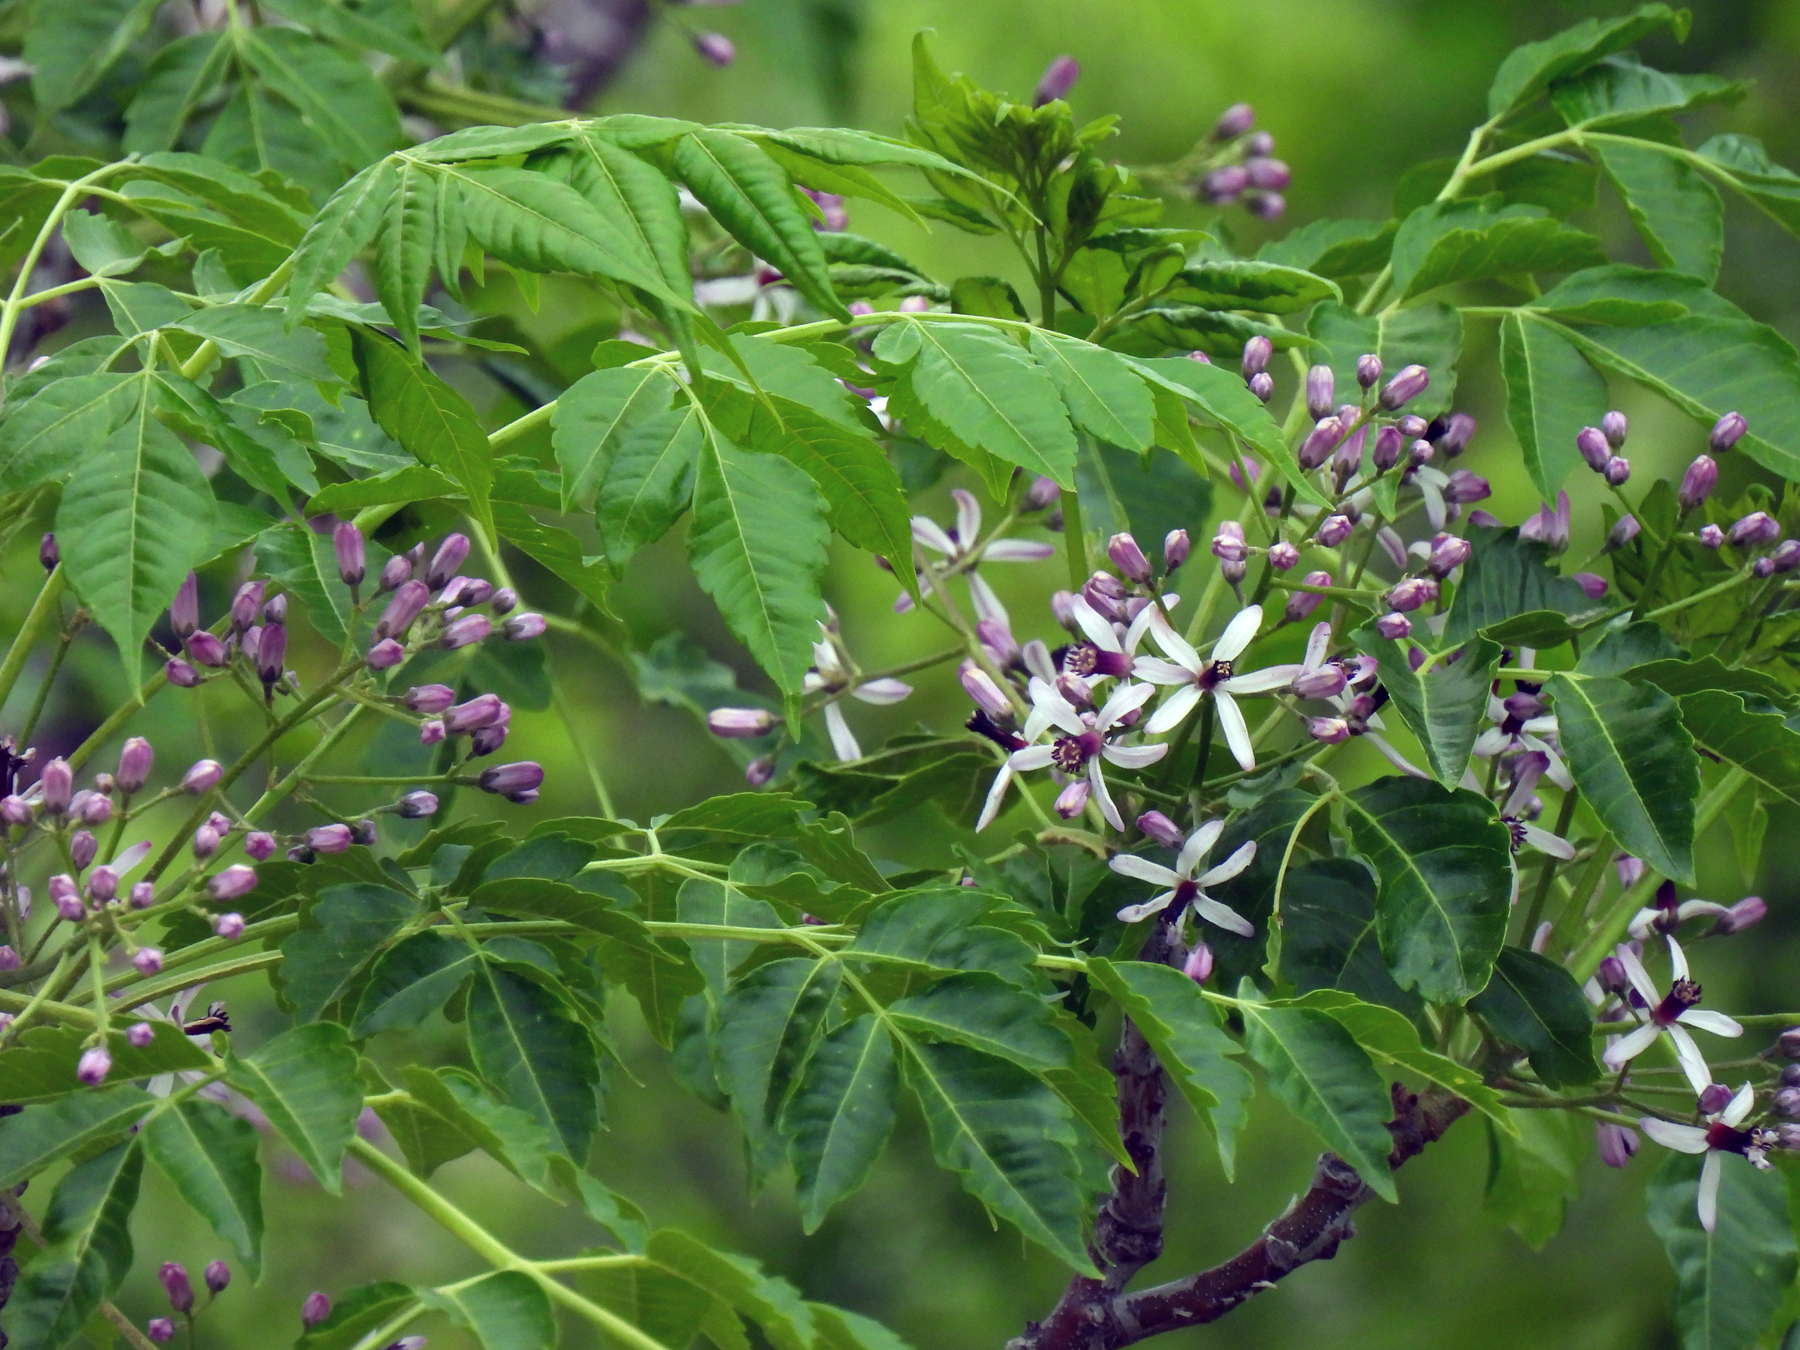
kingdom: Plantae
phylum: Tracheophyta
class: Magnoliopsida
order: Sapindales
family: Meliaceae
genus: Melia
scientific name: Melia azedarach
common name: Chinaberrytree
